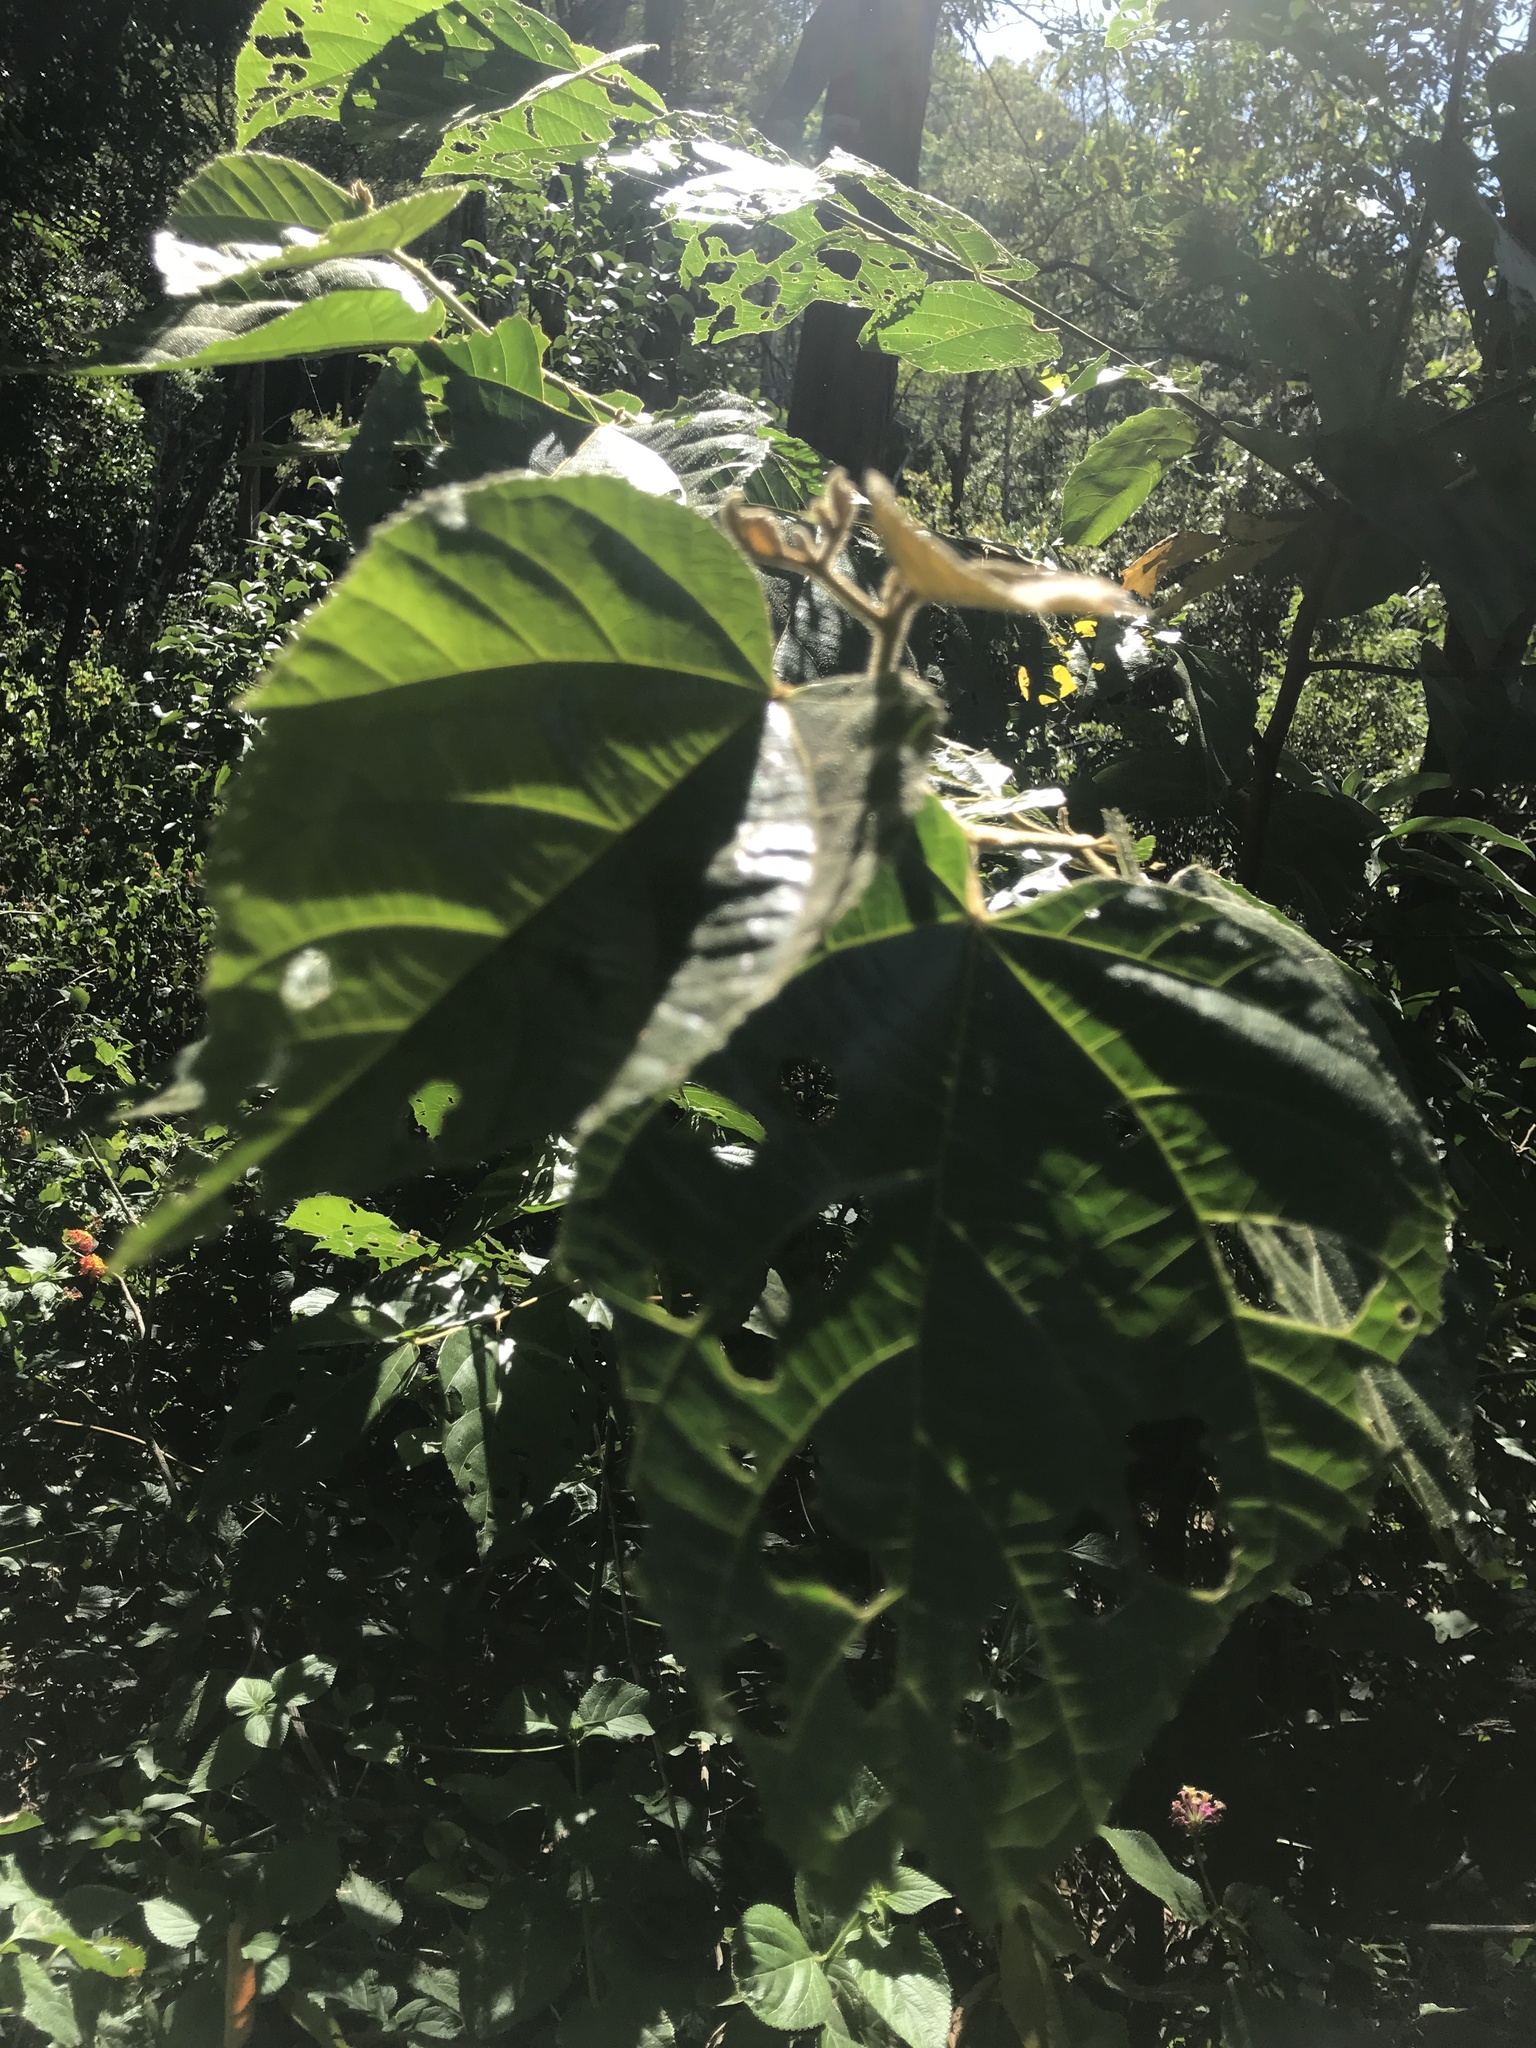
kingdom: Plantae
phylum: Tracheophyta
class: Magnoliopsida
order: Malvales
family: Malvaceae
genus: Commersonia
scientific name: Commersonia bartramia
